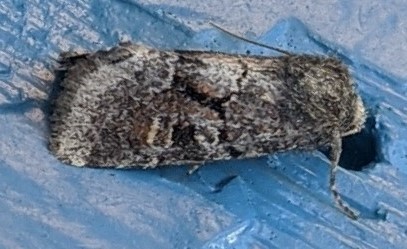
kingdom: Animalia
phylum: Arthropoda
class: Insecta
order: Lepidoptera
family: Noctuidae
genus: Oligia
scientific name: Oligia minuscula
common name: Small brocade
